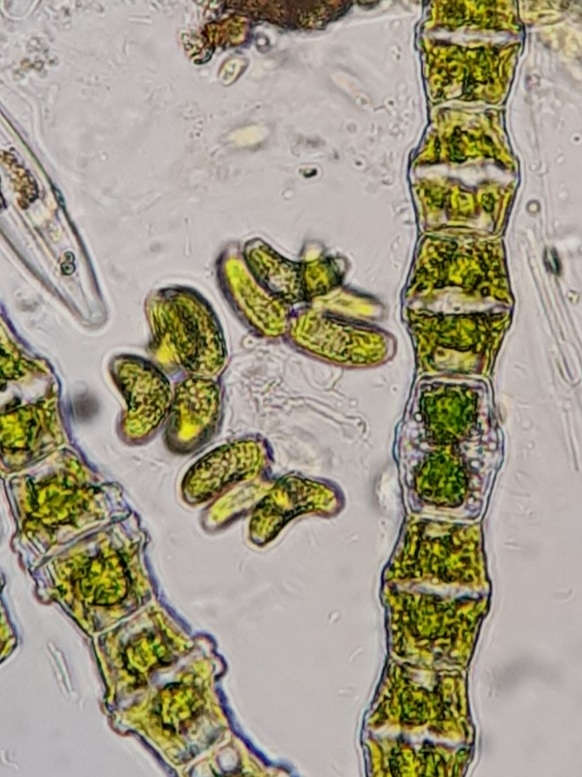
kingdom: Plantae
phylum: Chlorophyta
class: Chlorophyceae
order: Sphaeropleales
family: Scenedesmaceae
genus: Dimorphococcus
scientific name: Dimorphococcus lunatus
